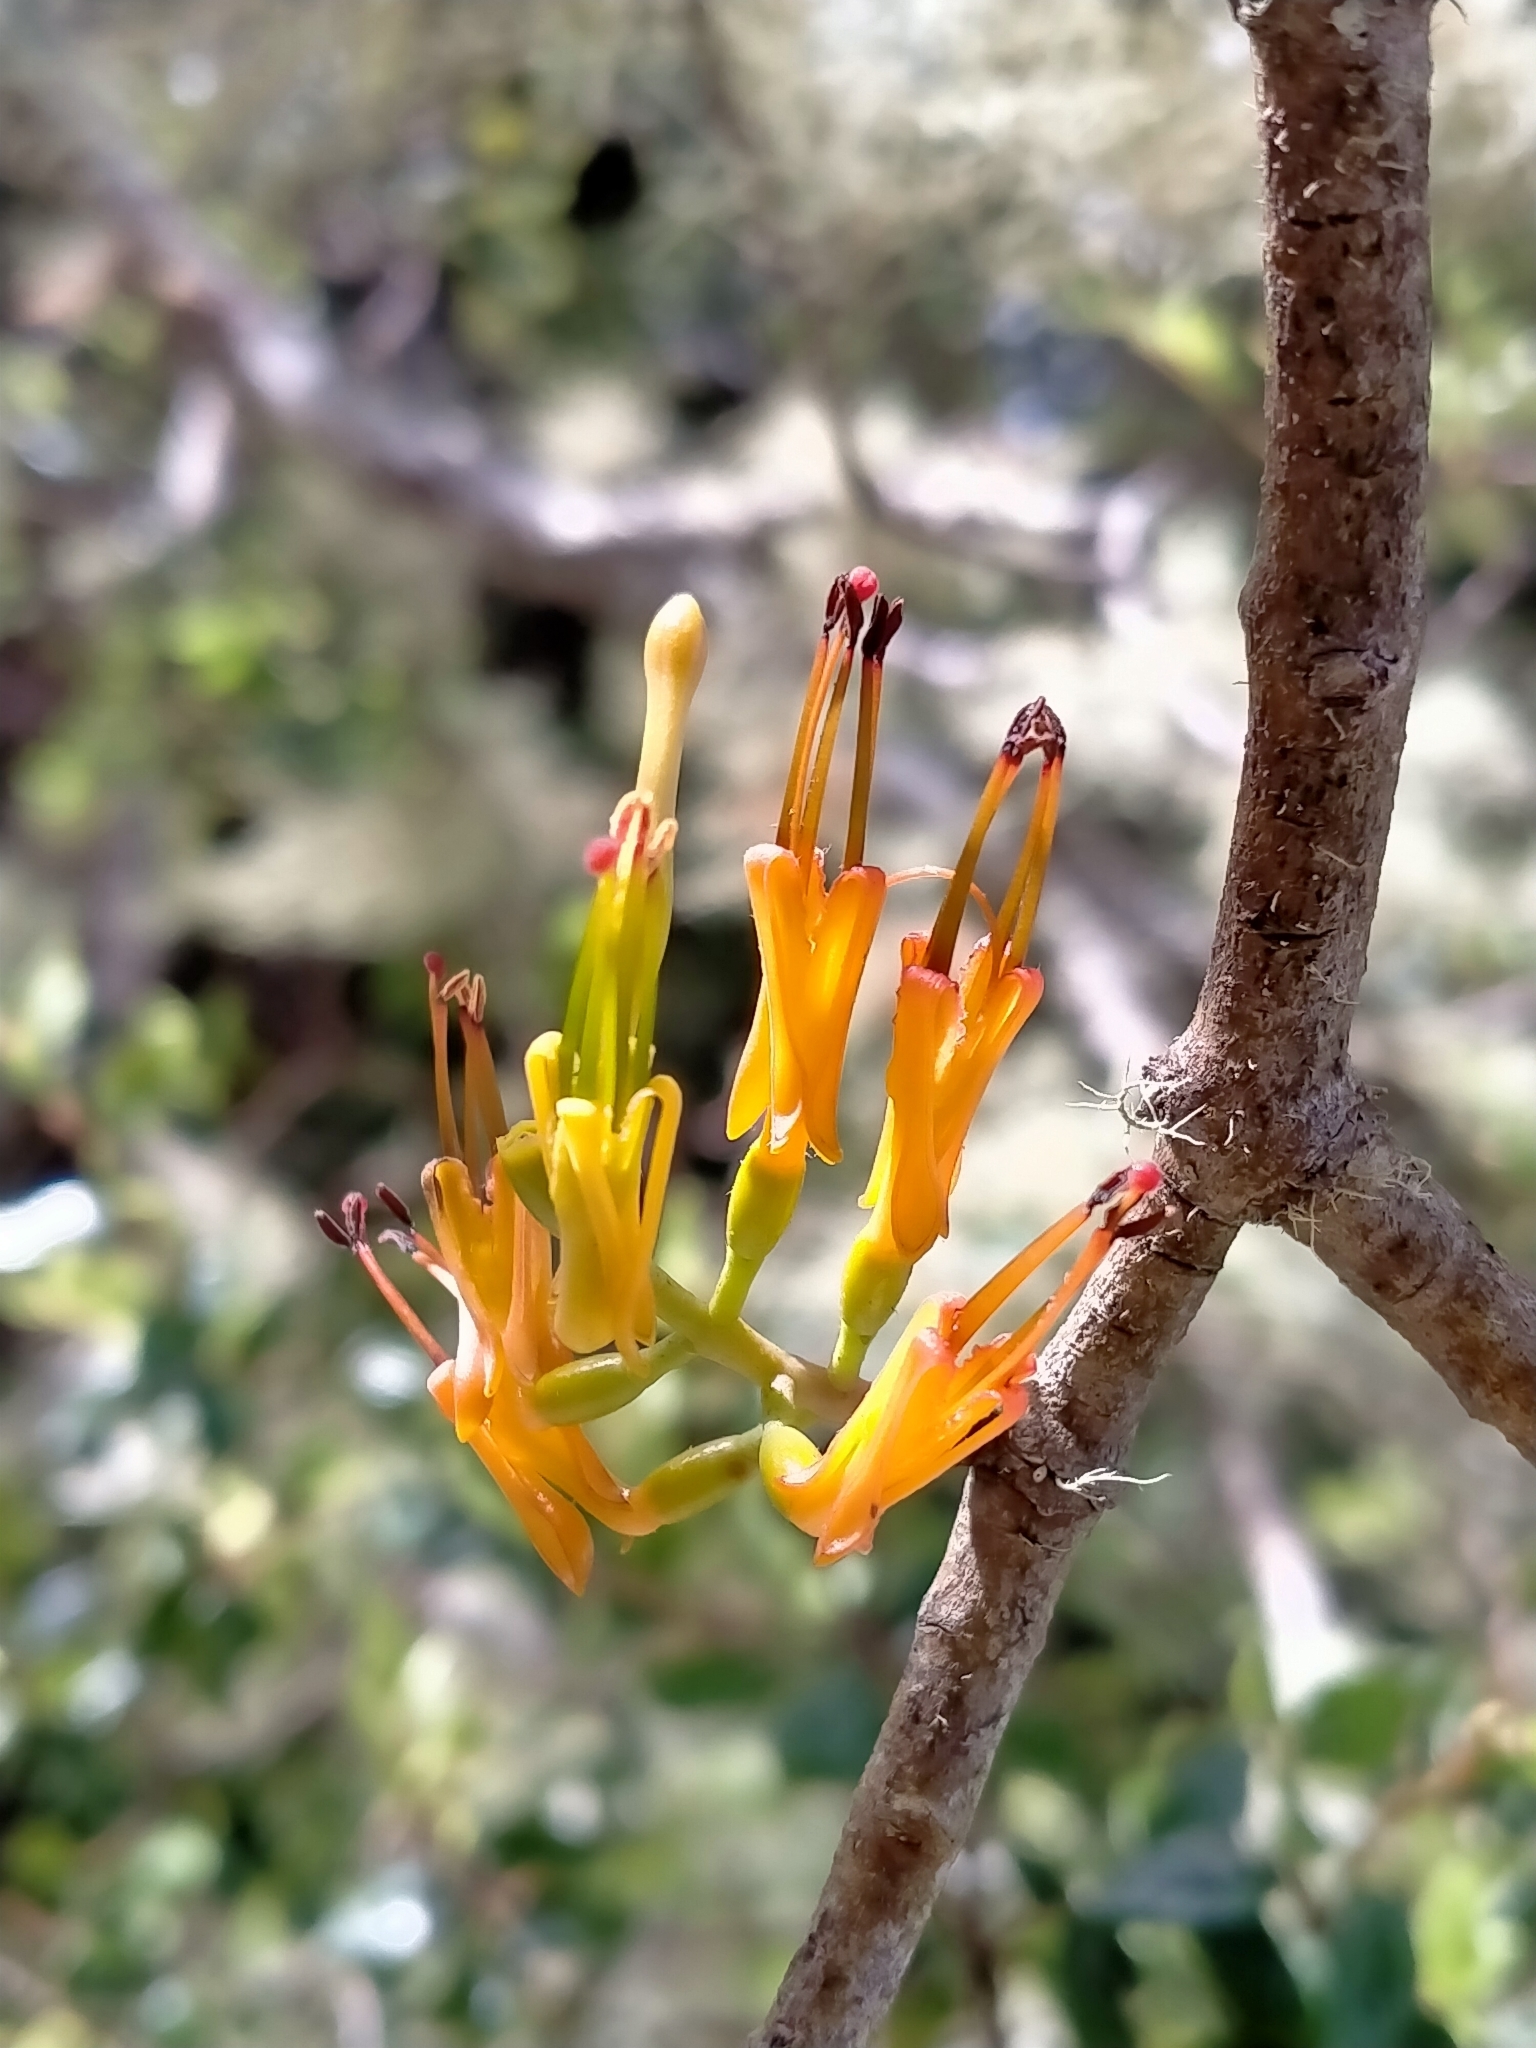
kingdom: Plantae
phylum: Tracheophyta
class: Magnoliopsida
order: Santalales
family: Loranthaceae
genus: Alepis
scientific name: Alepis flavida
